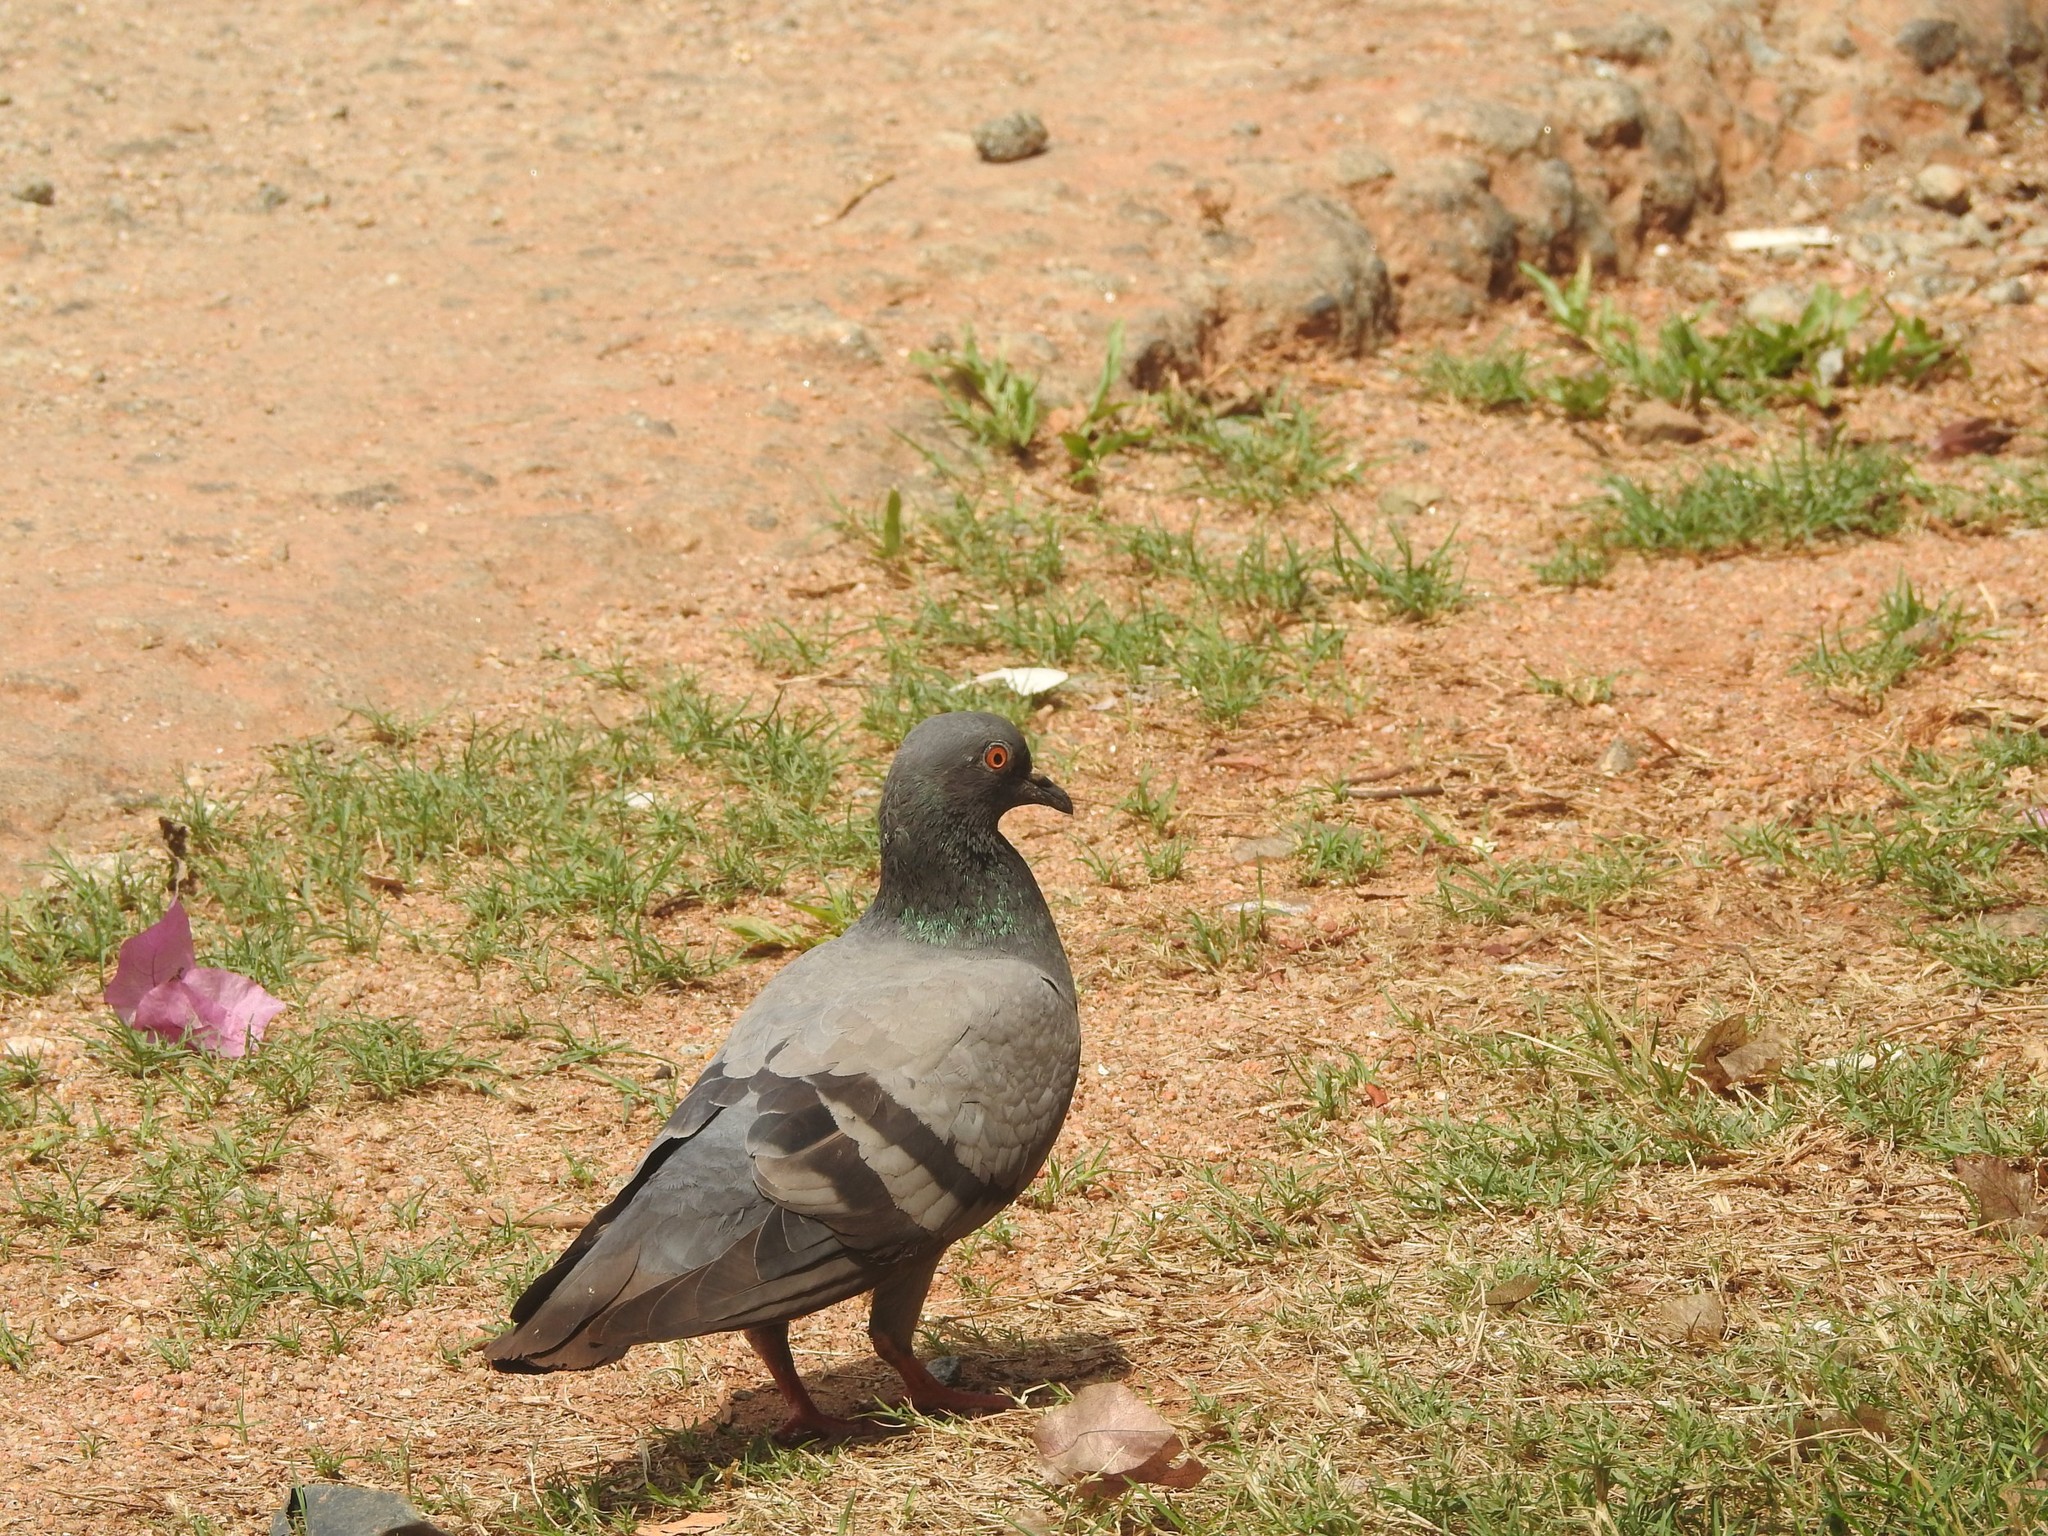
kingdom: Animalia
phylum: Chordata
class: Aves
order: Columbiformes
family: Columbidae
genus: Columba
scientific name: Columba livia
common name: Rock pigeon
